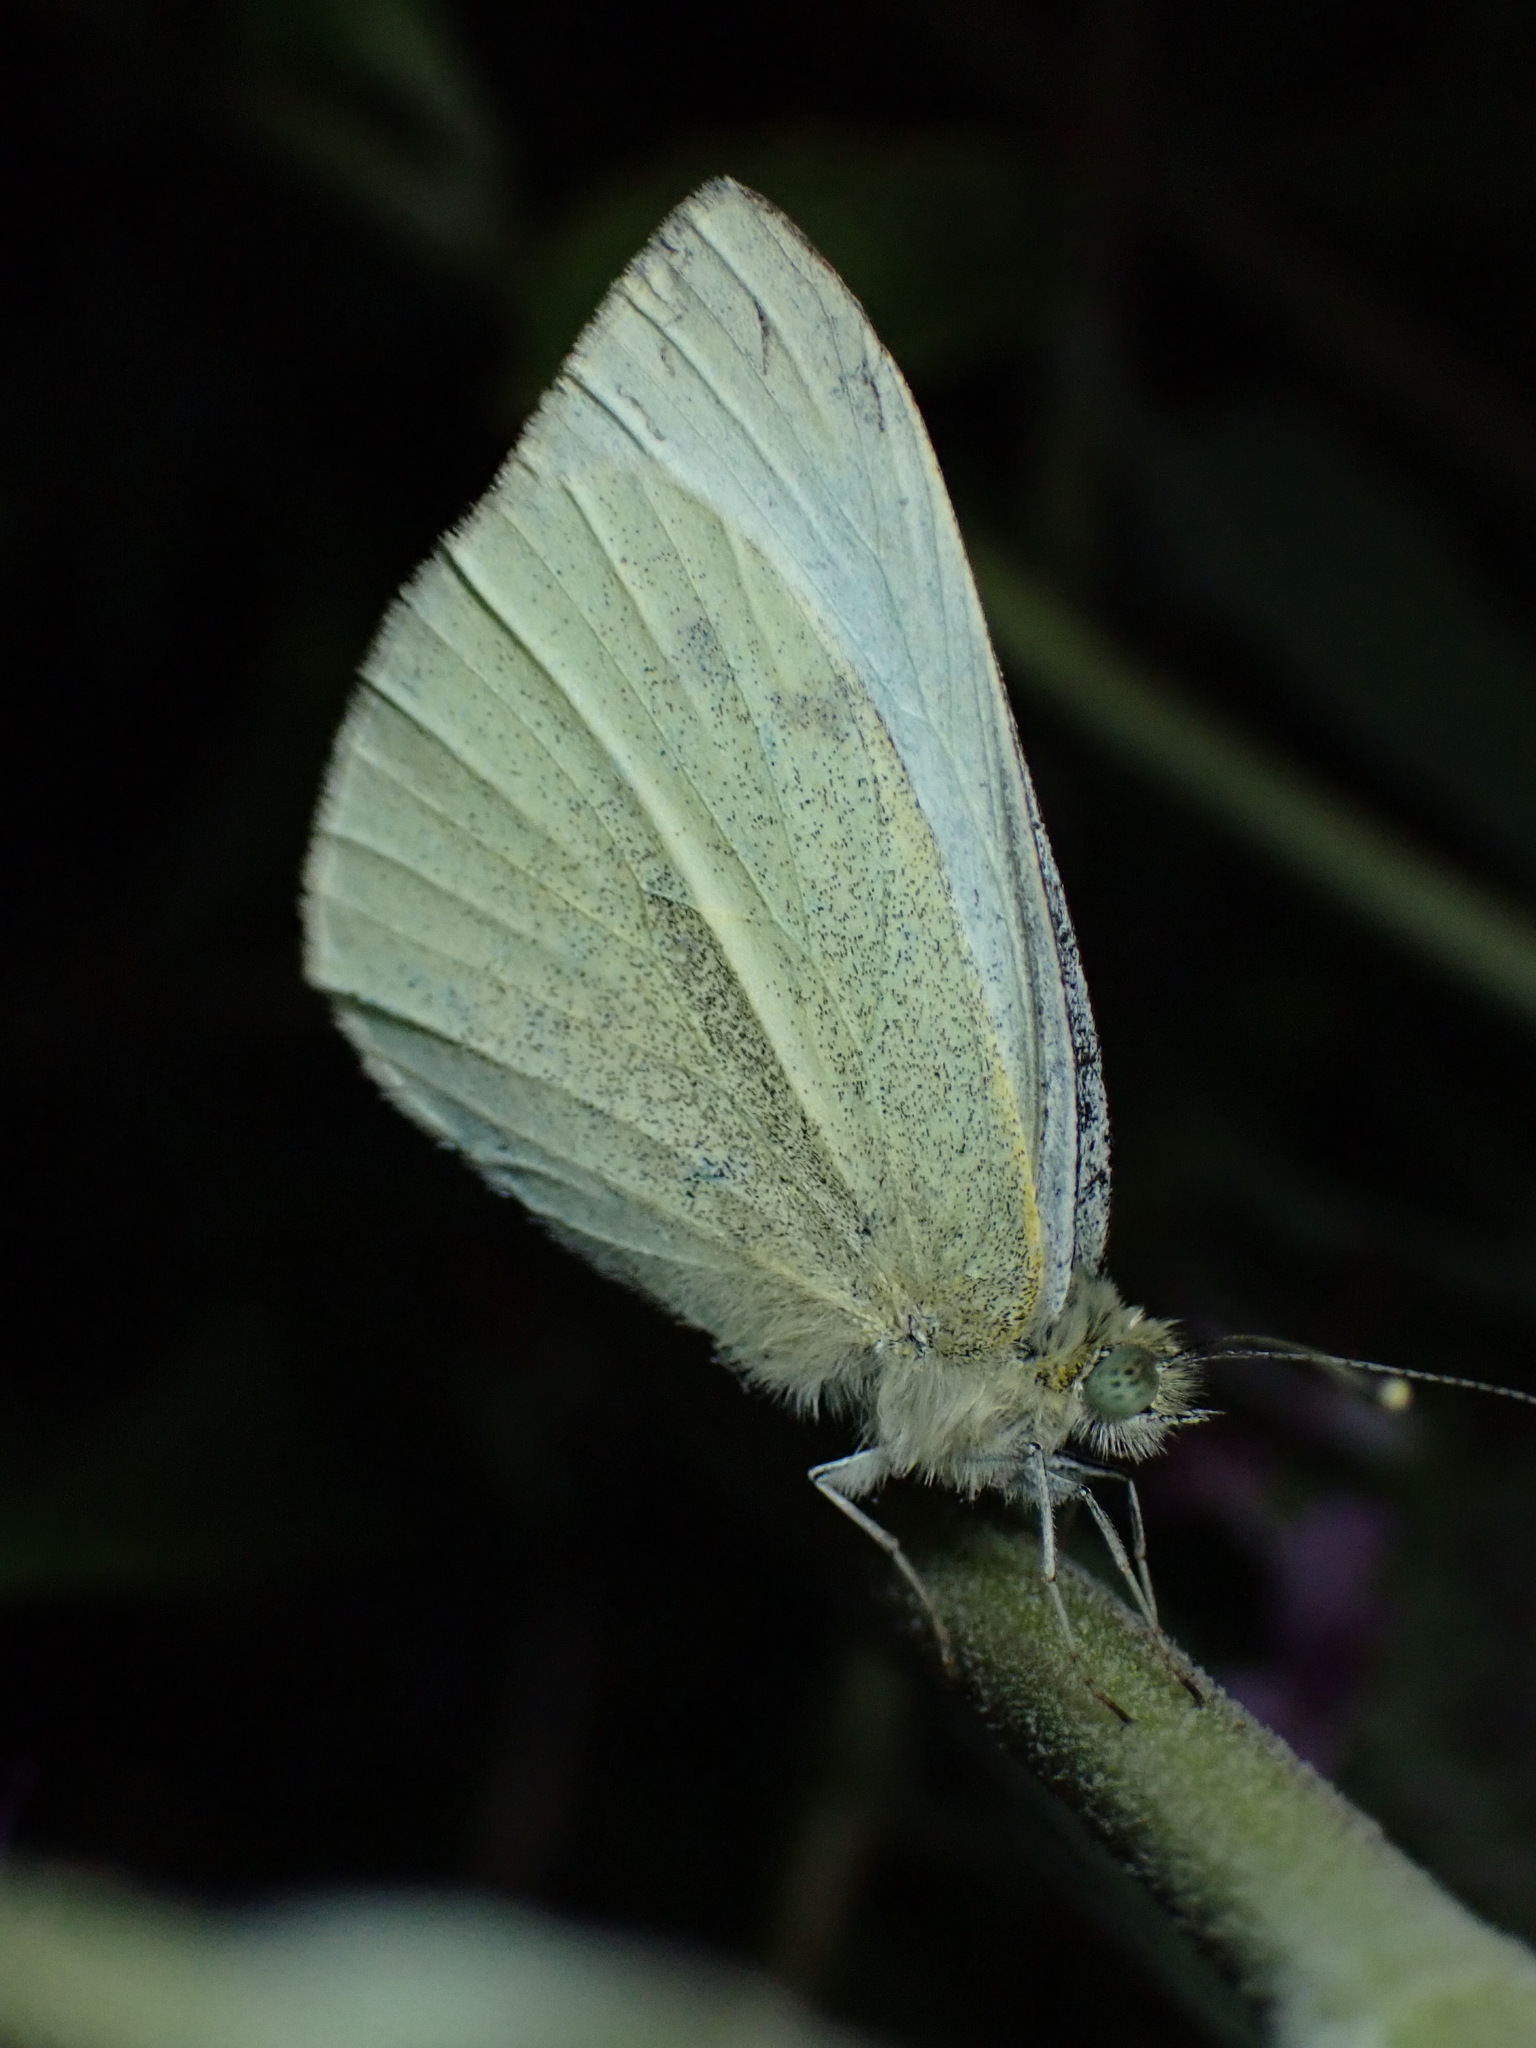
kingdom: Animalia
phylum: Arthropoda
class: Insecta
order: Lepidoptera
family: Pieridae
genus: Pieris
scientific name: Pieris rapae
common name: Small white
